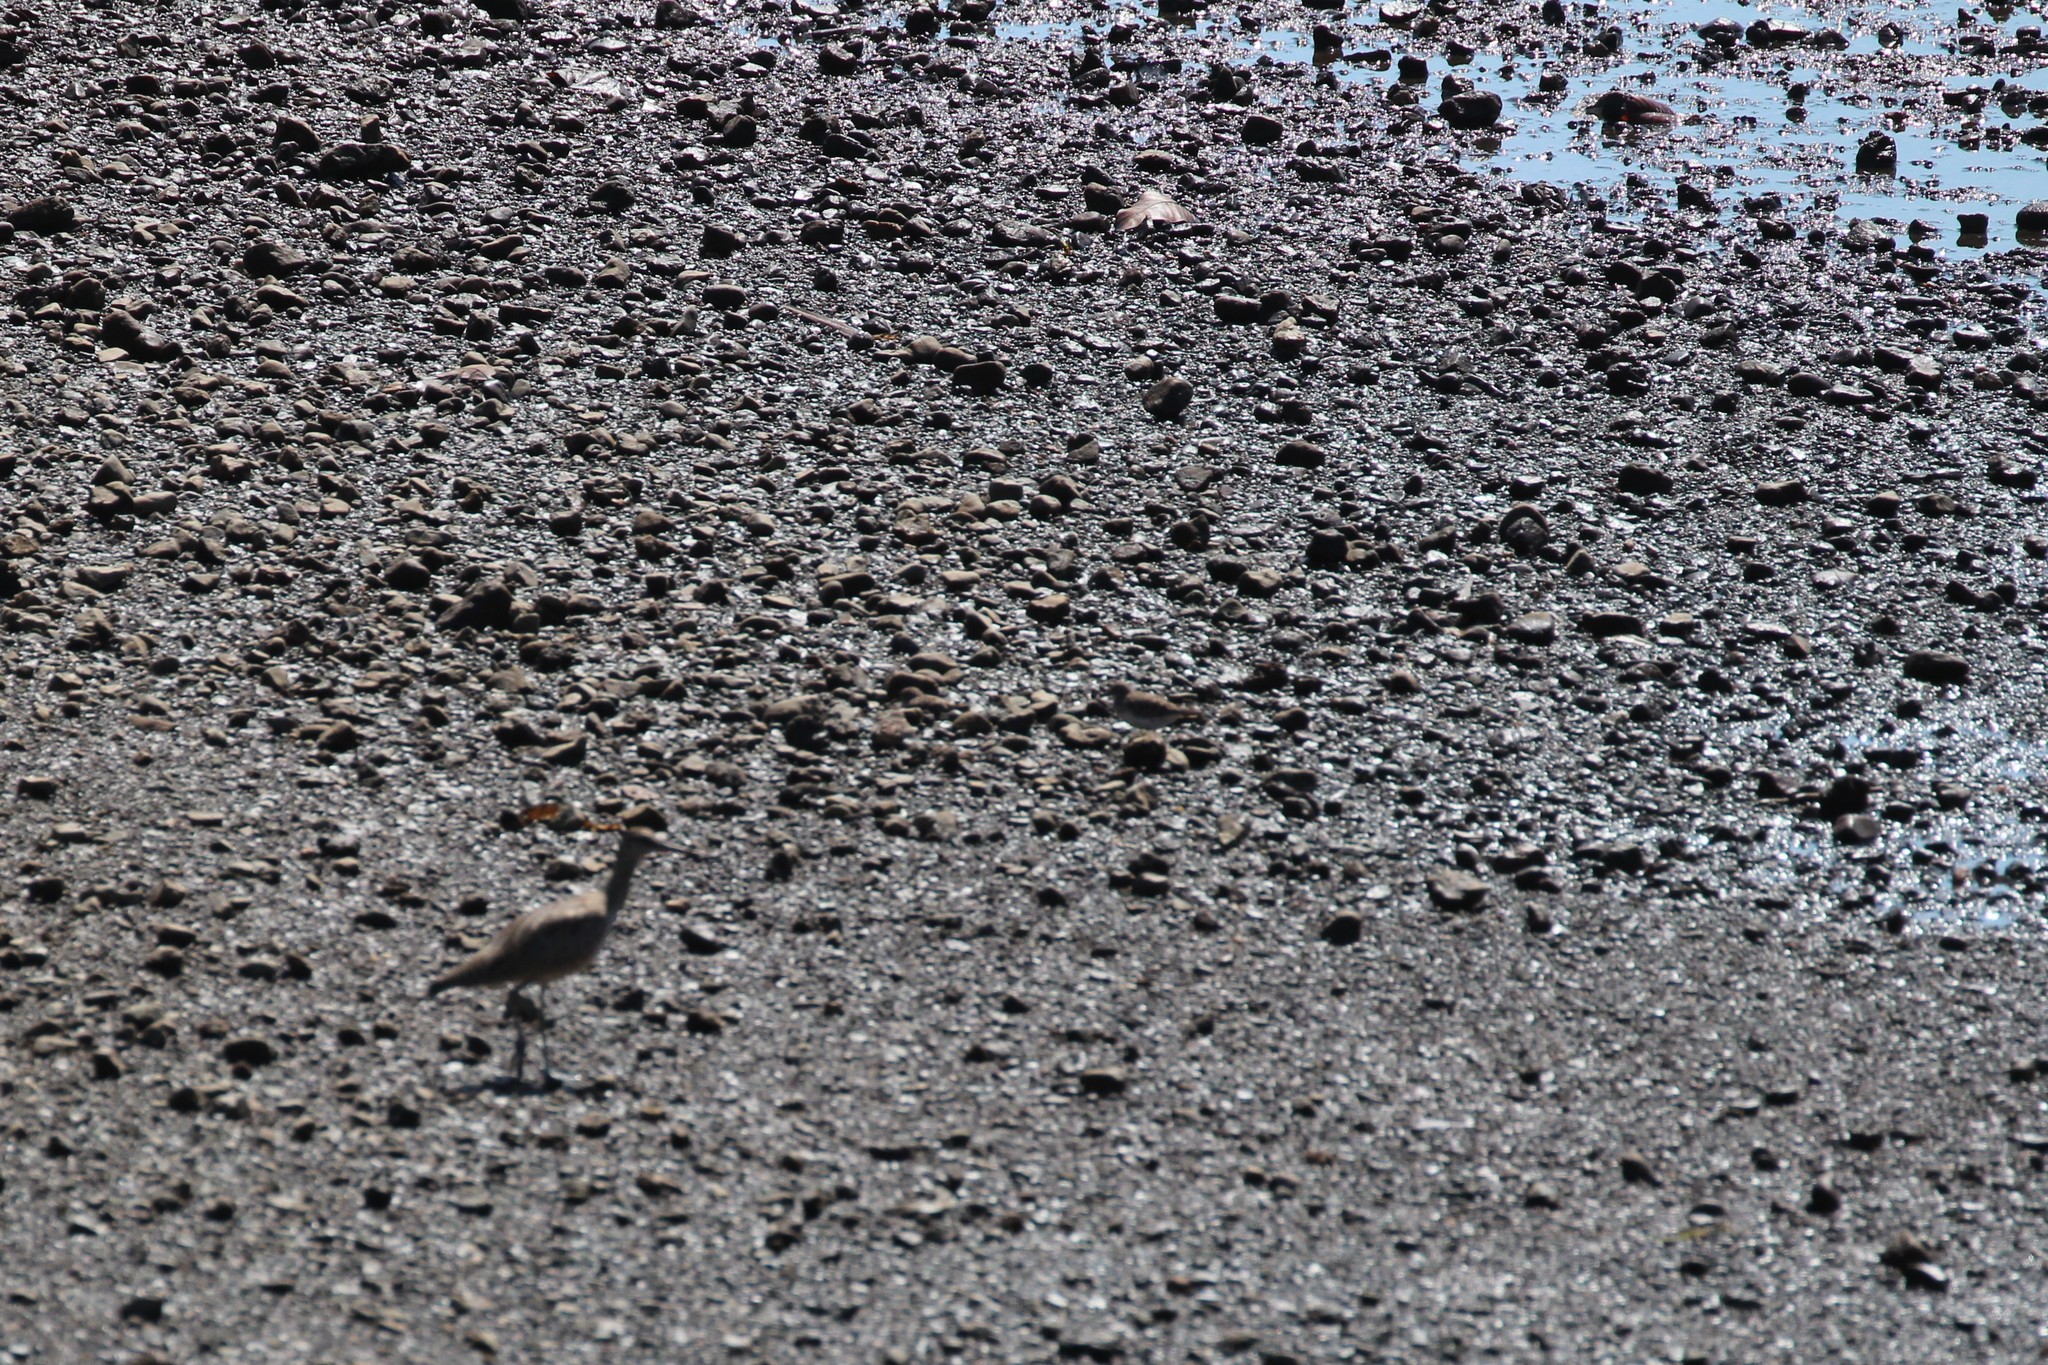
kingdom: Animalia
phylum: Chordata
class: Aves
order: Charadriiformes
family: Scolopacidae
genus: Tringa
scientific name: Tringa semipalmata
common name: Willet
